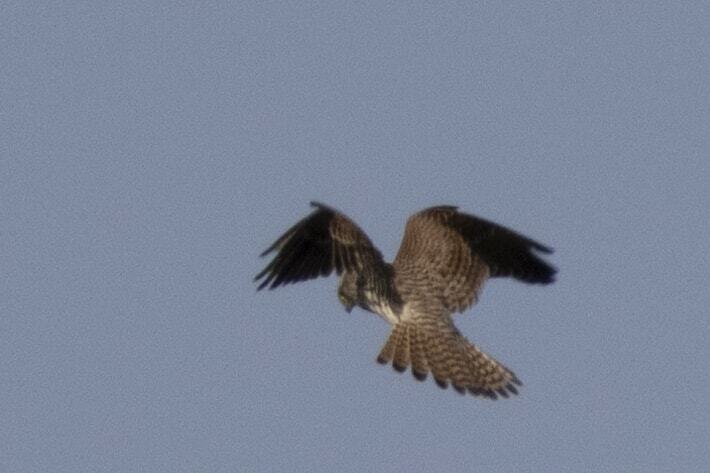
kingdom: Animalia
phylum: Chordata
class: Aves
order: Falconiformes
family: Falconidae
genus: Falco
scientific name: Falco tinnunculus
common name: Common kestrel
